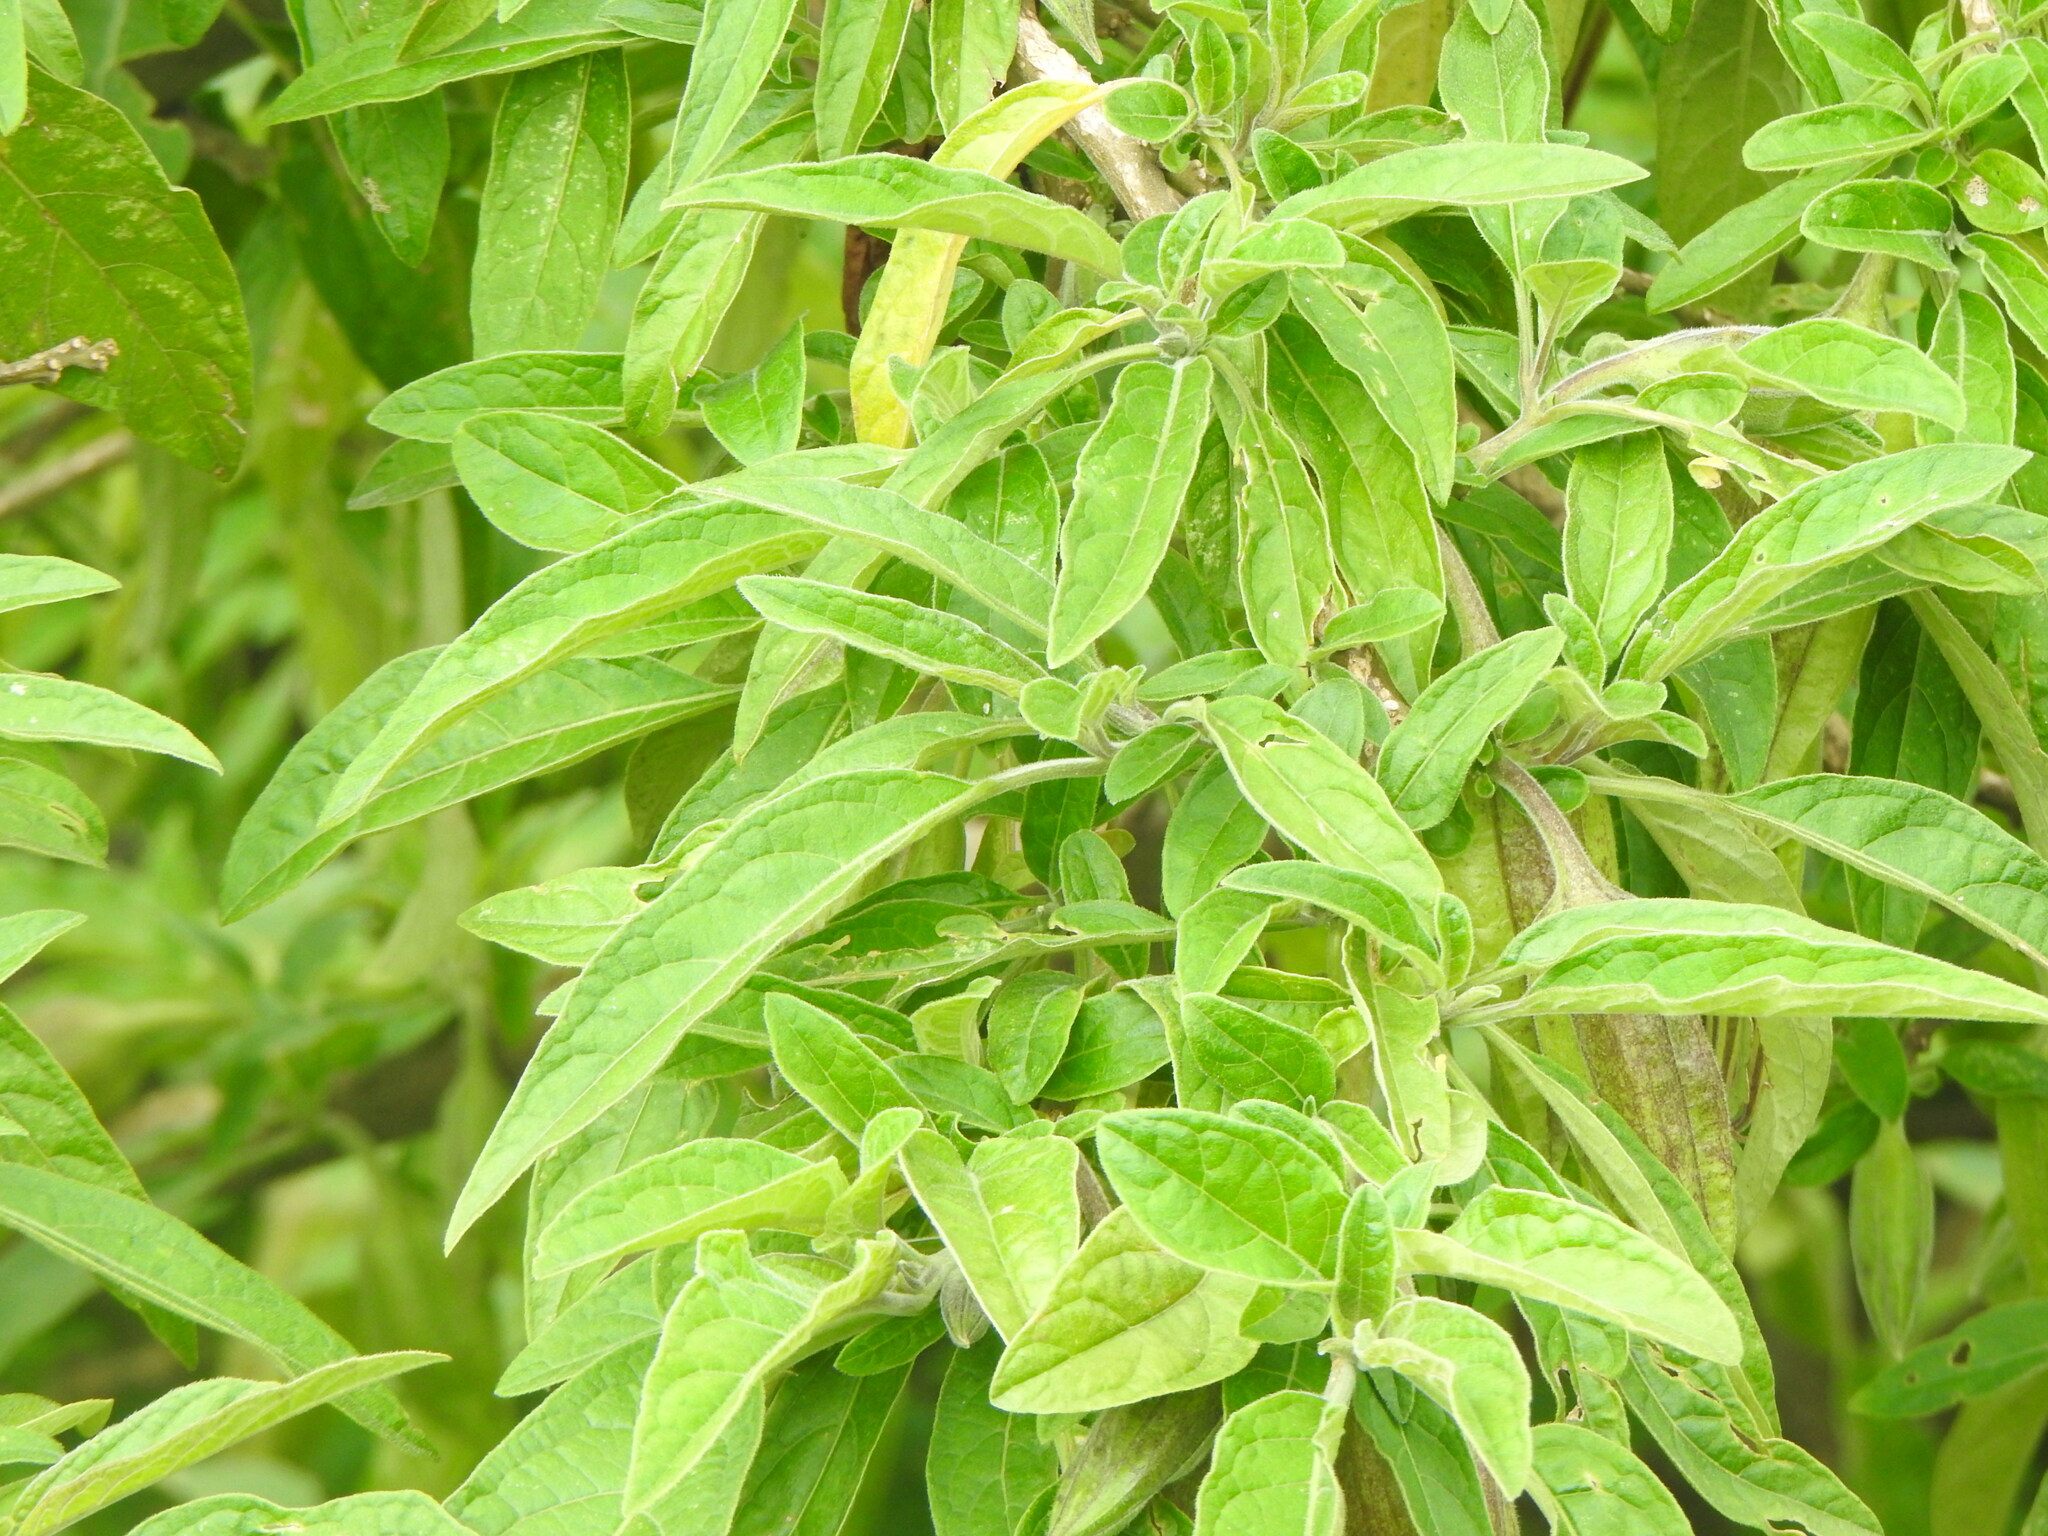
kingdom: Plantae
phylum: Tracheophyta
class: Magnoliopsida
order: Solanales
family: Solanaceae
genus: Brugmansia
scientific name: Brugmansia sanguinea
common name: Red floripontio
